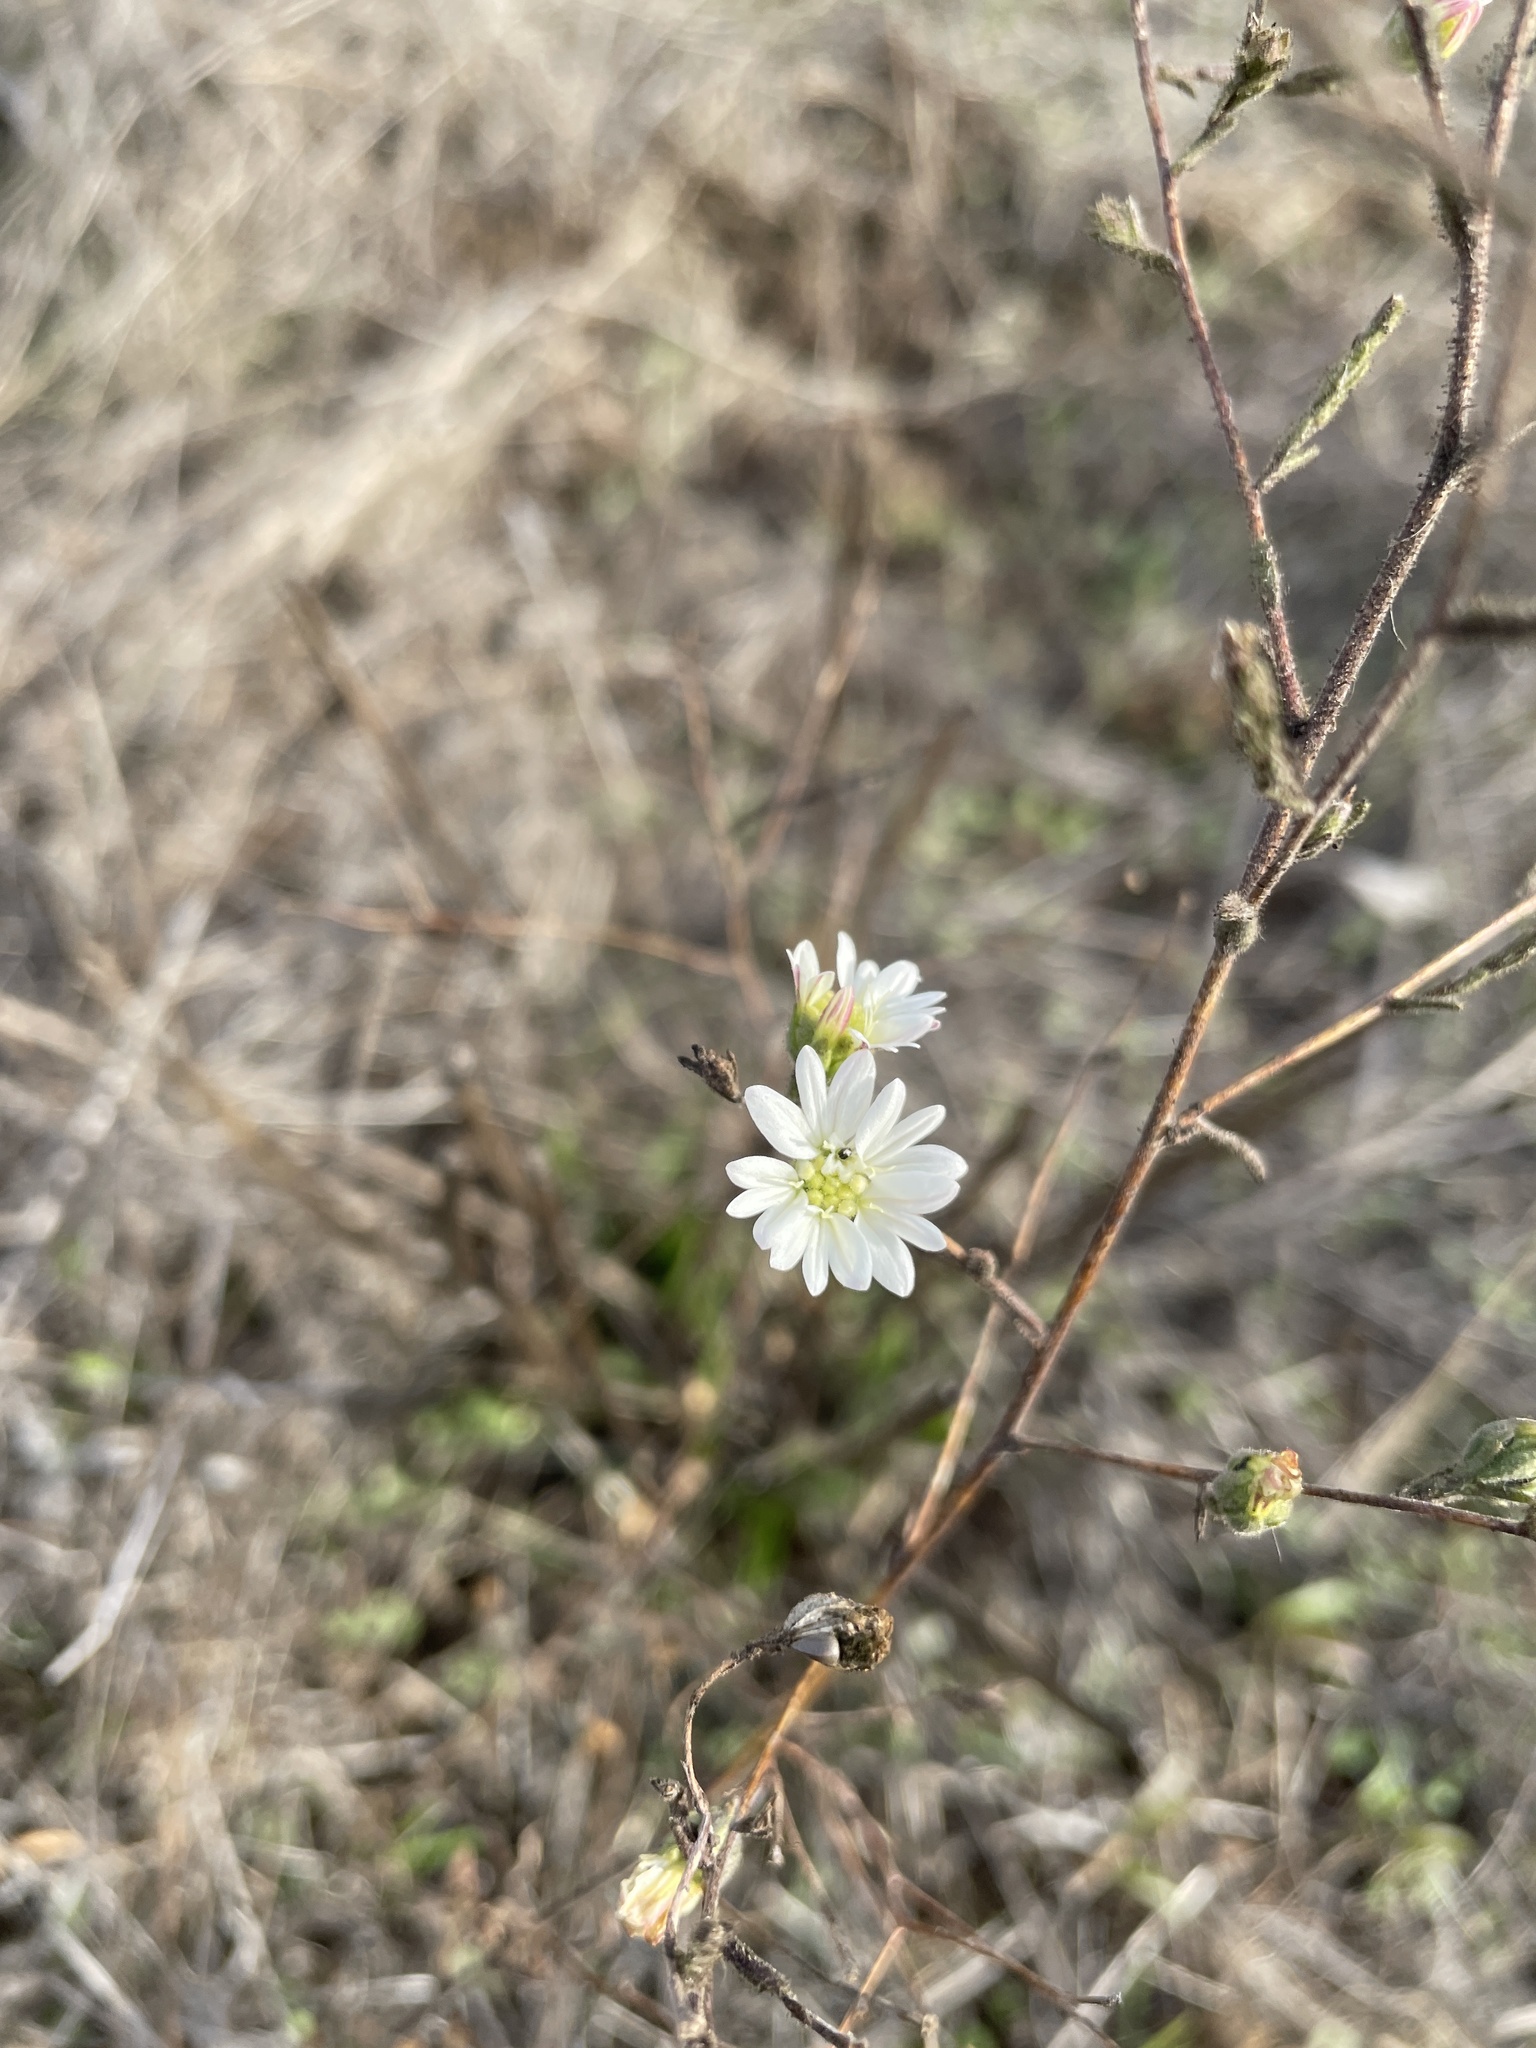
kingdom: Plantae
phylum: Tracheophyta
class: Magnoliopsida
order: Asterales
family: Asteraceae
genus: Hemizonia
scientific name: Hemizonia congesta
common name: Hayfield tarweed
